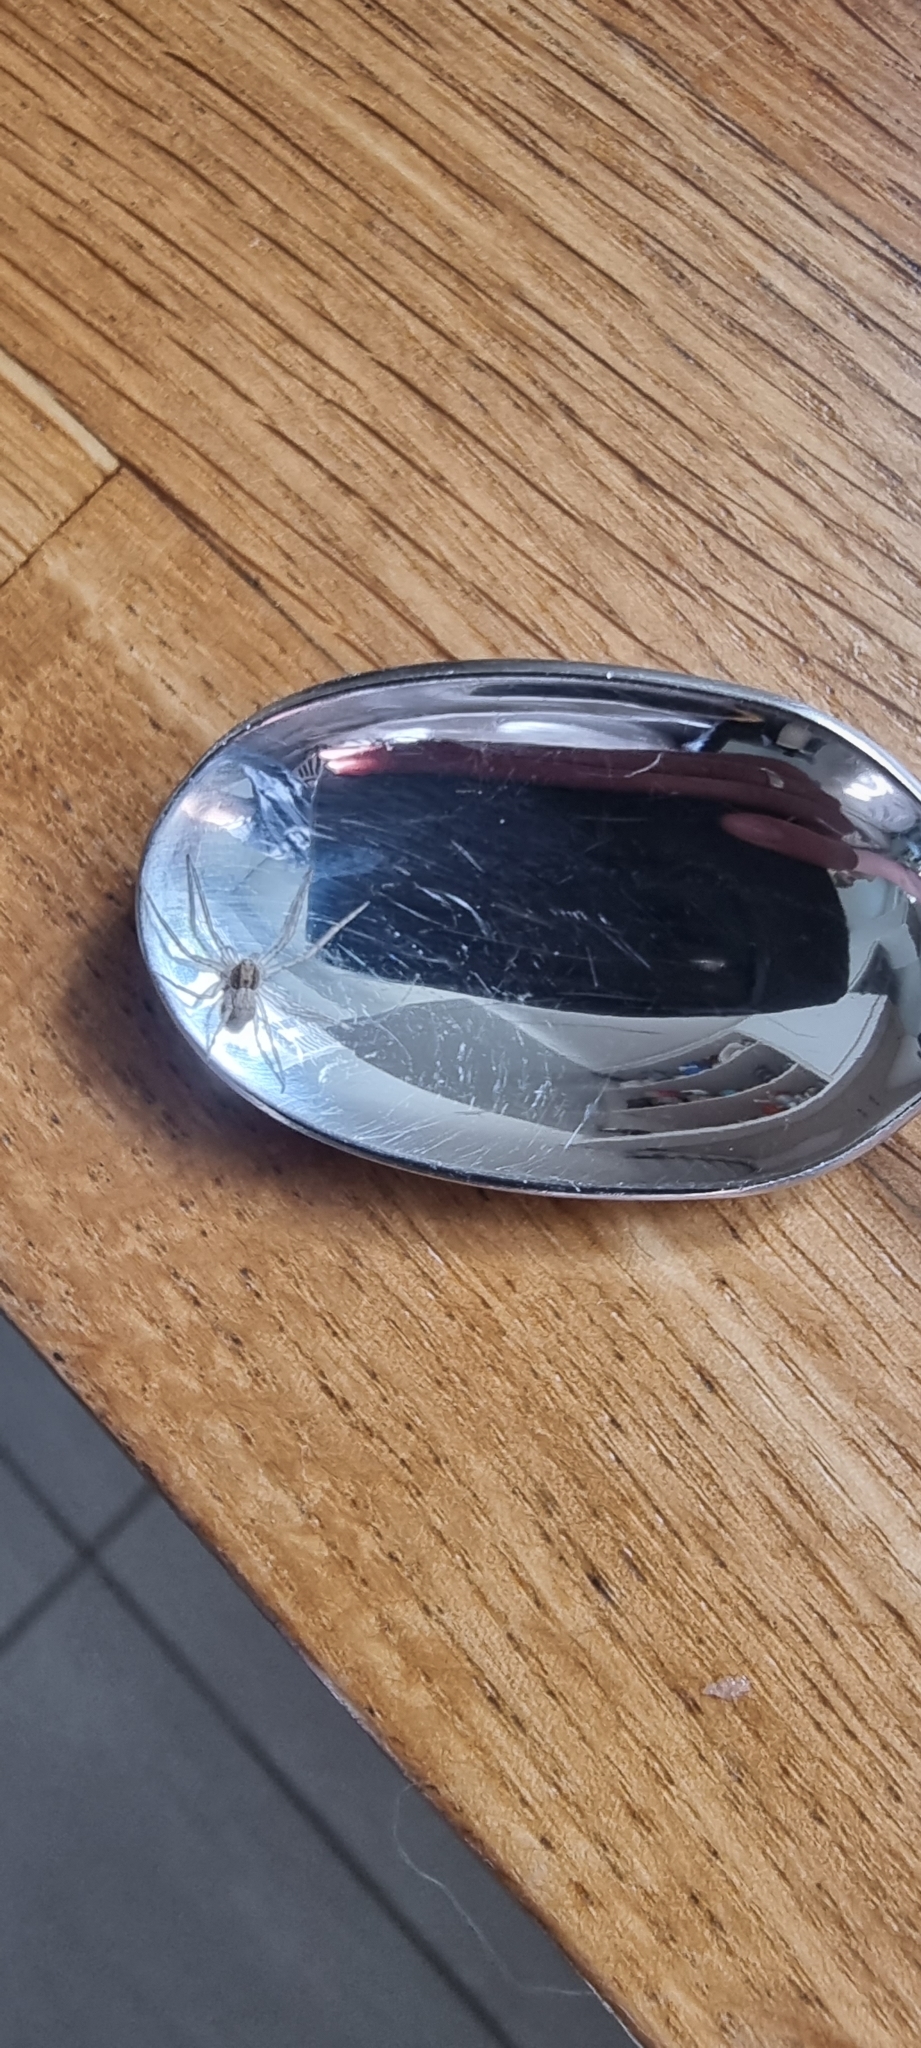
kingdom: Animalia
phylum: Arthropoda
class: Arachnida
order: Araneae
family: Philodromidae
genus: Philodromus
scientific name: Philodromus dispar
